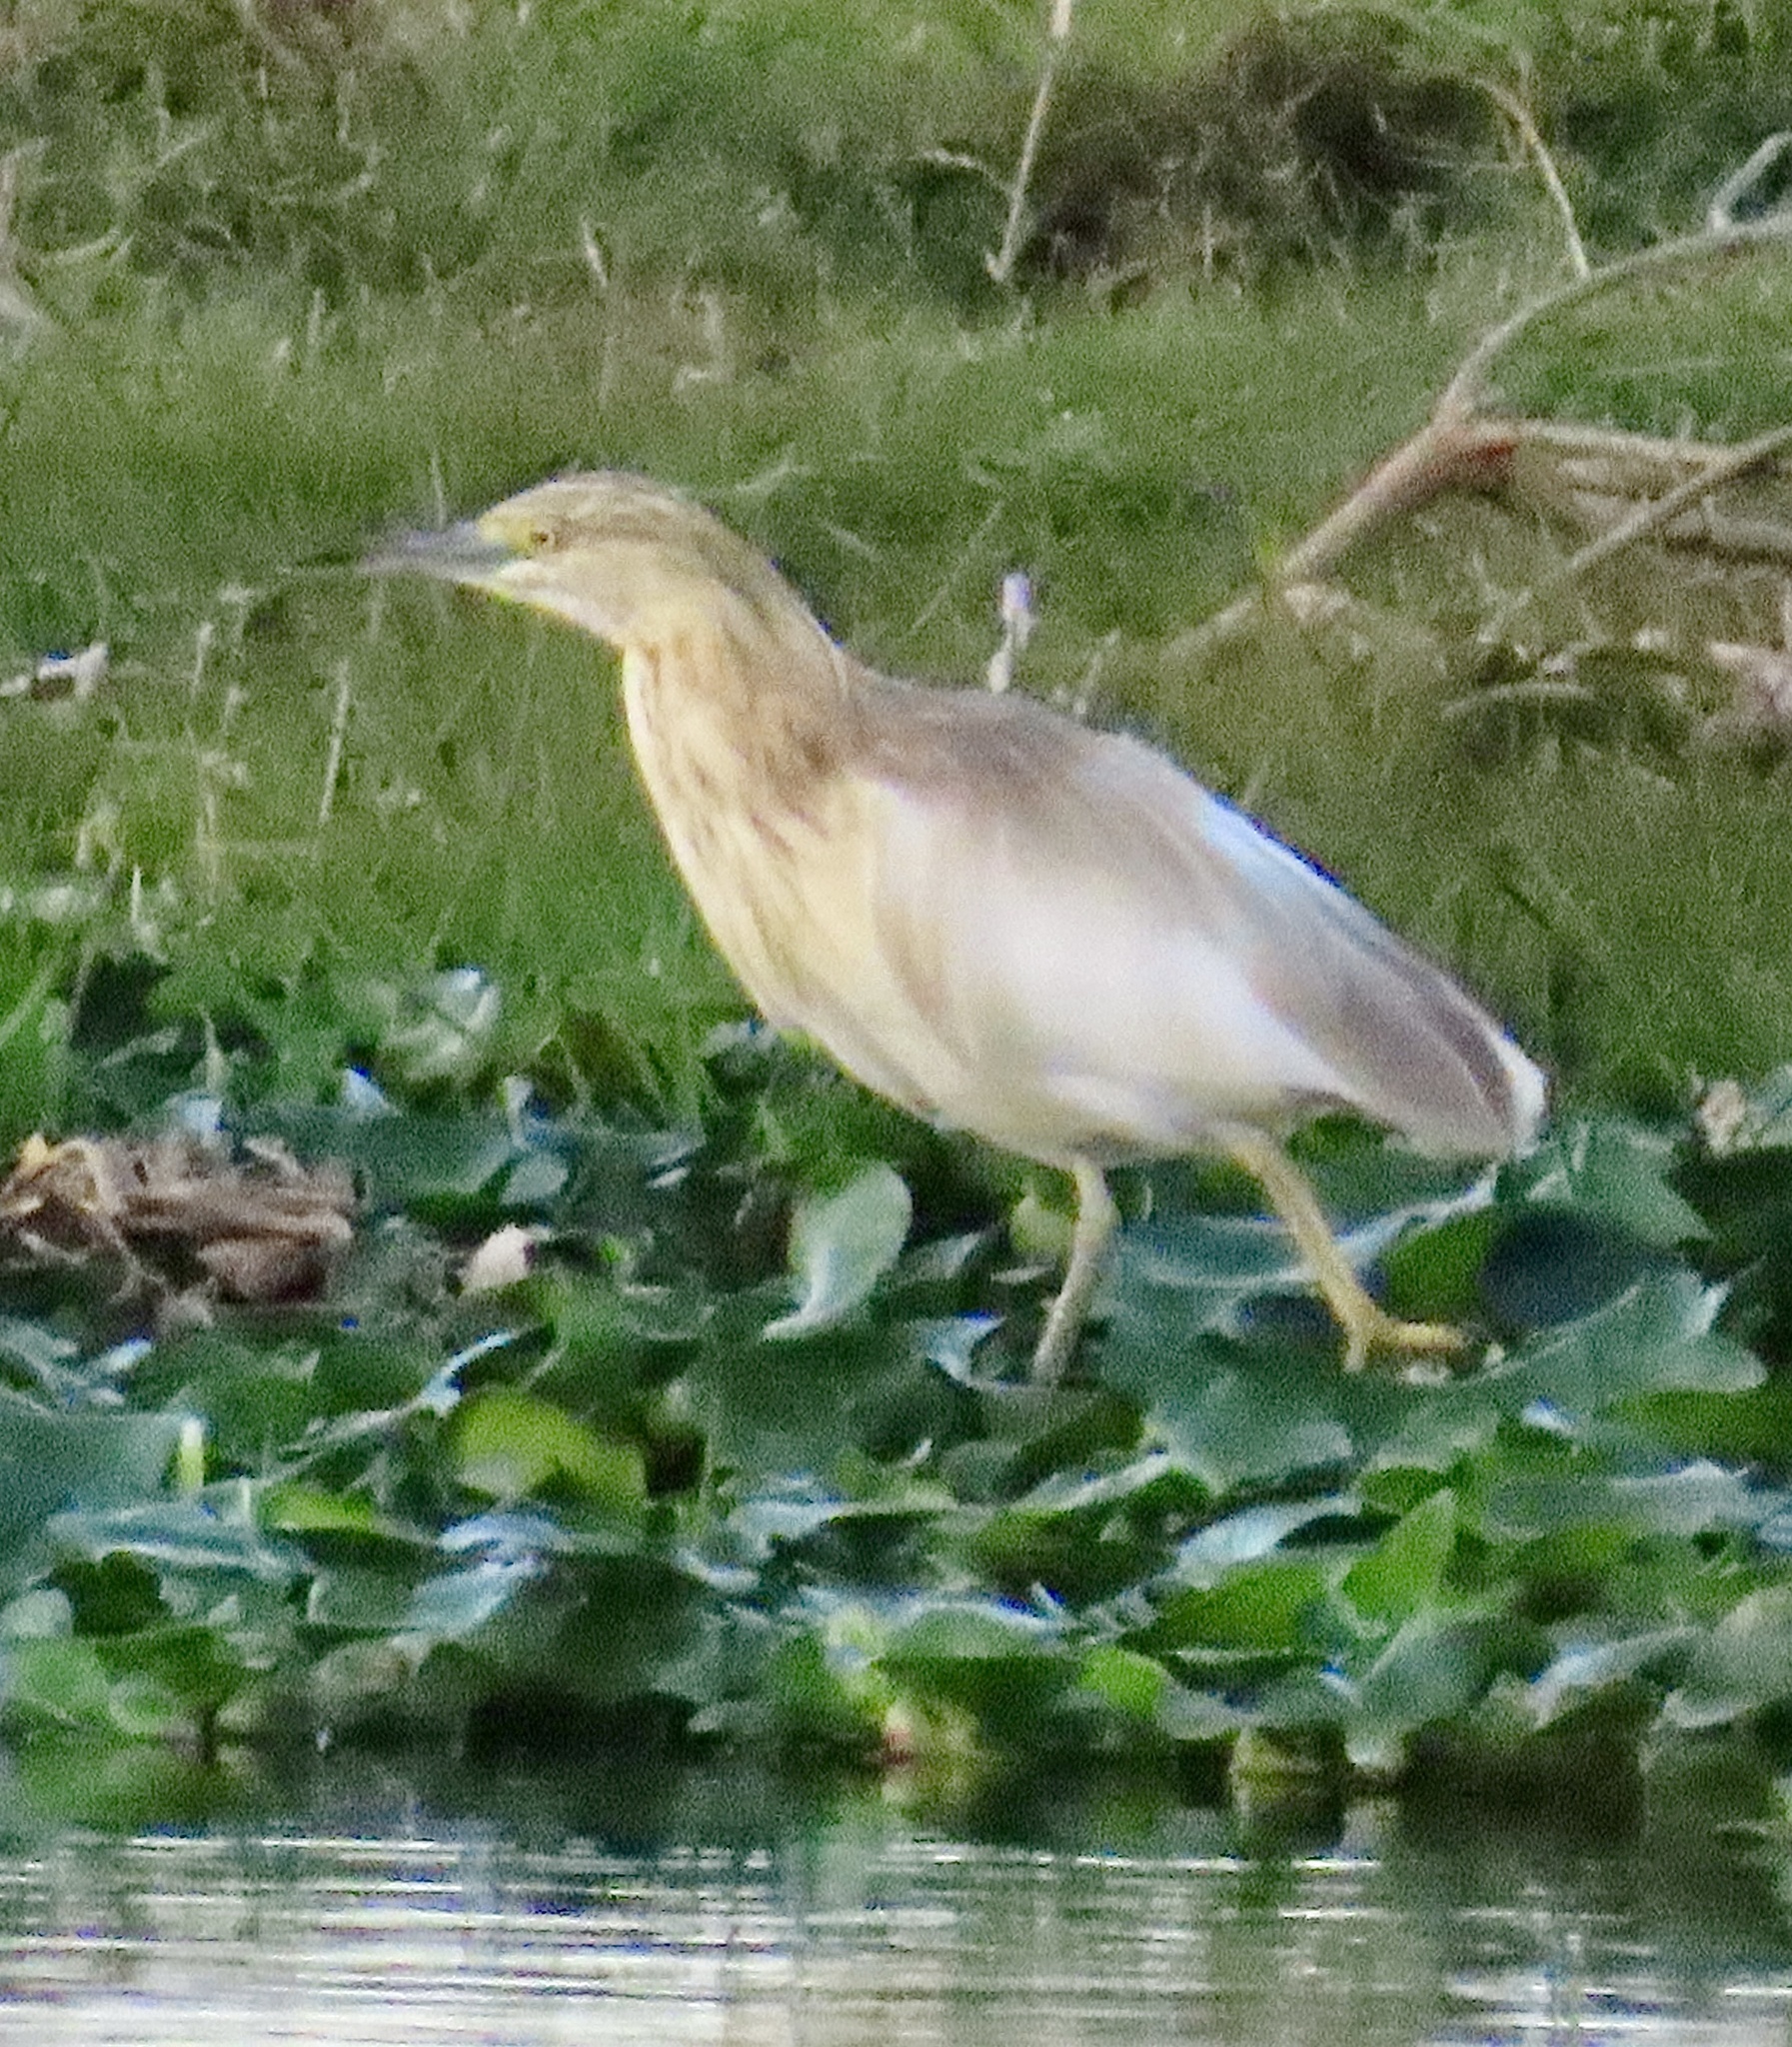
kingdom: Animalia
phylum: Chordata
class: Aves
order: Pelecaniformes
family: Ardeidae
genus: Ardeola
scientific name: Ardeola ralloides
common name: Squacco heron
